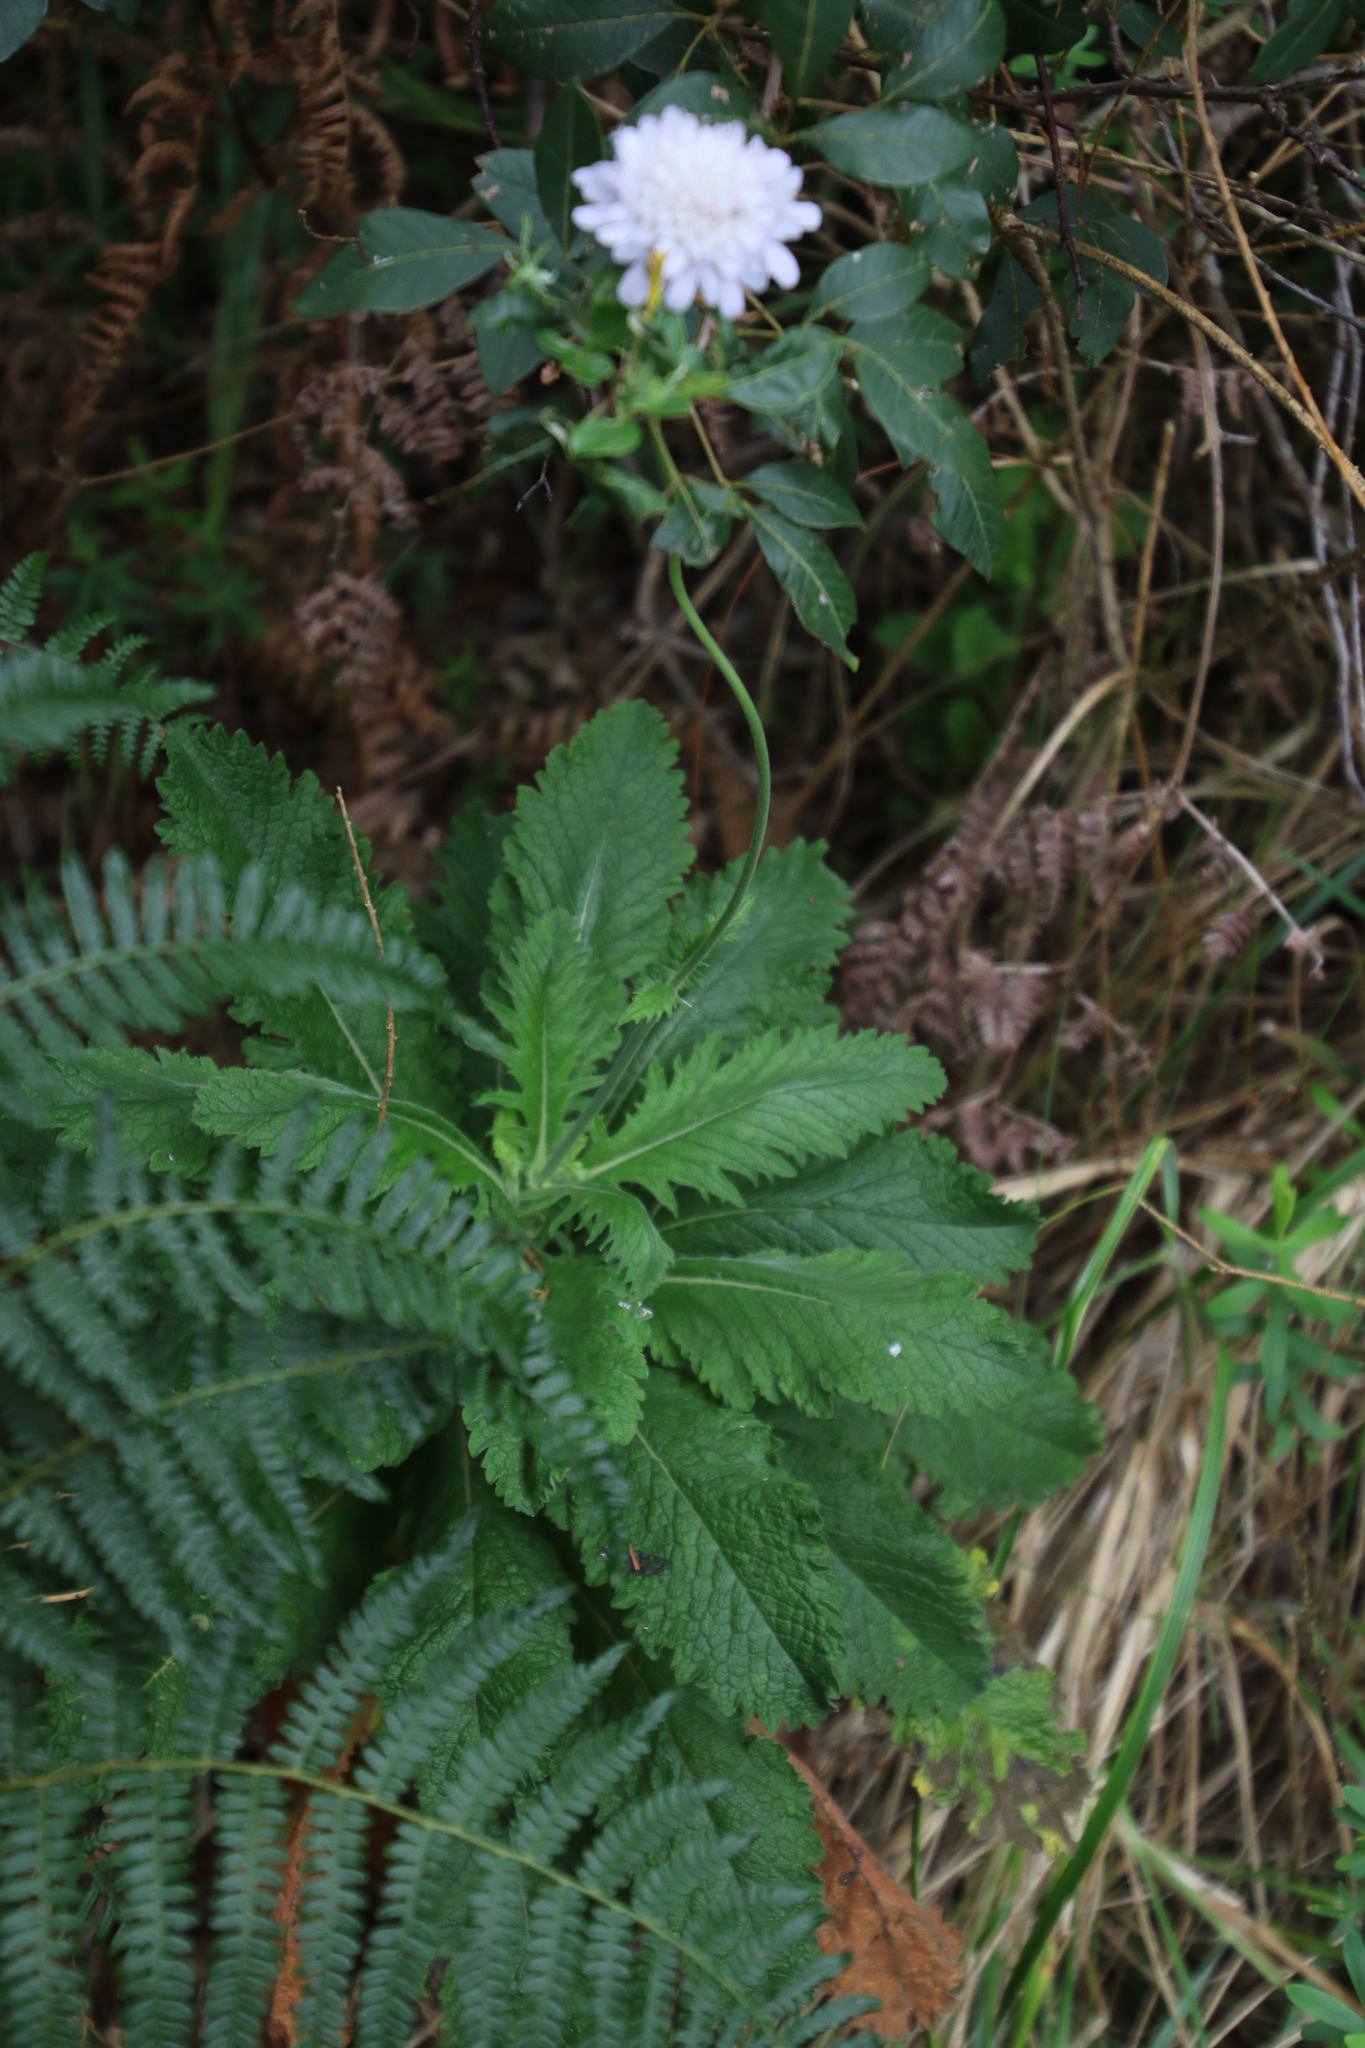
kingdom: Plantae
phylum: Tracheophyta
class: Magnoliopsida
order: Dipsacales
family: Caprifoliaceae
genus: Scabiosa
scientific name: Scabiosa africana
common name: Cape scabious
